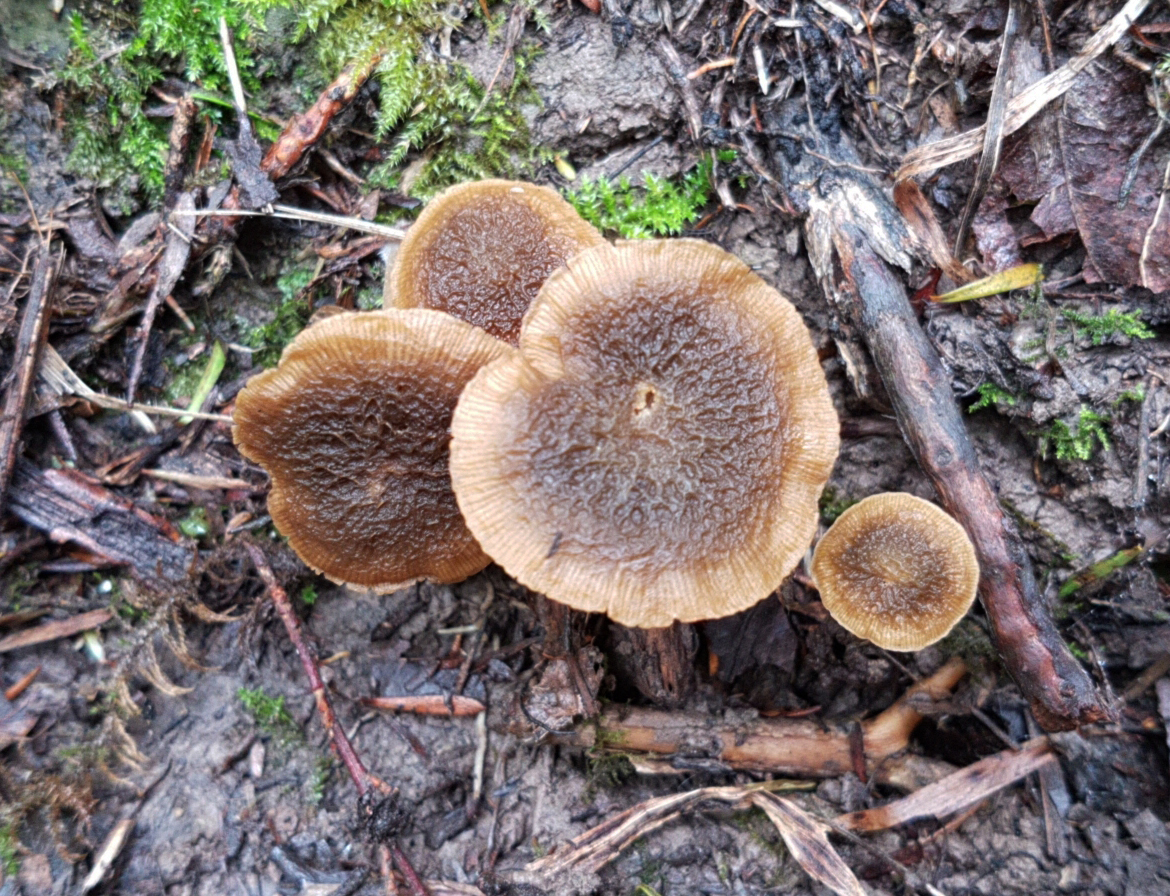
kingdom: Fungi
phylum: Basidiomycota
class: Agaricomycetes
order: Agaricales
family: Crepidotaceae
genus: Simocybe
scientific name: Simocybe phlebophora
